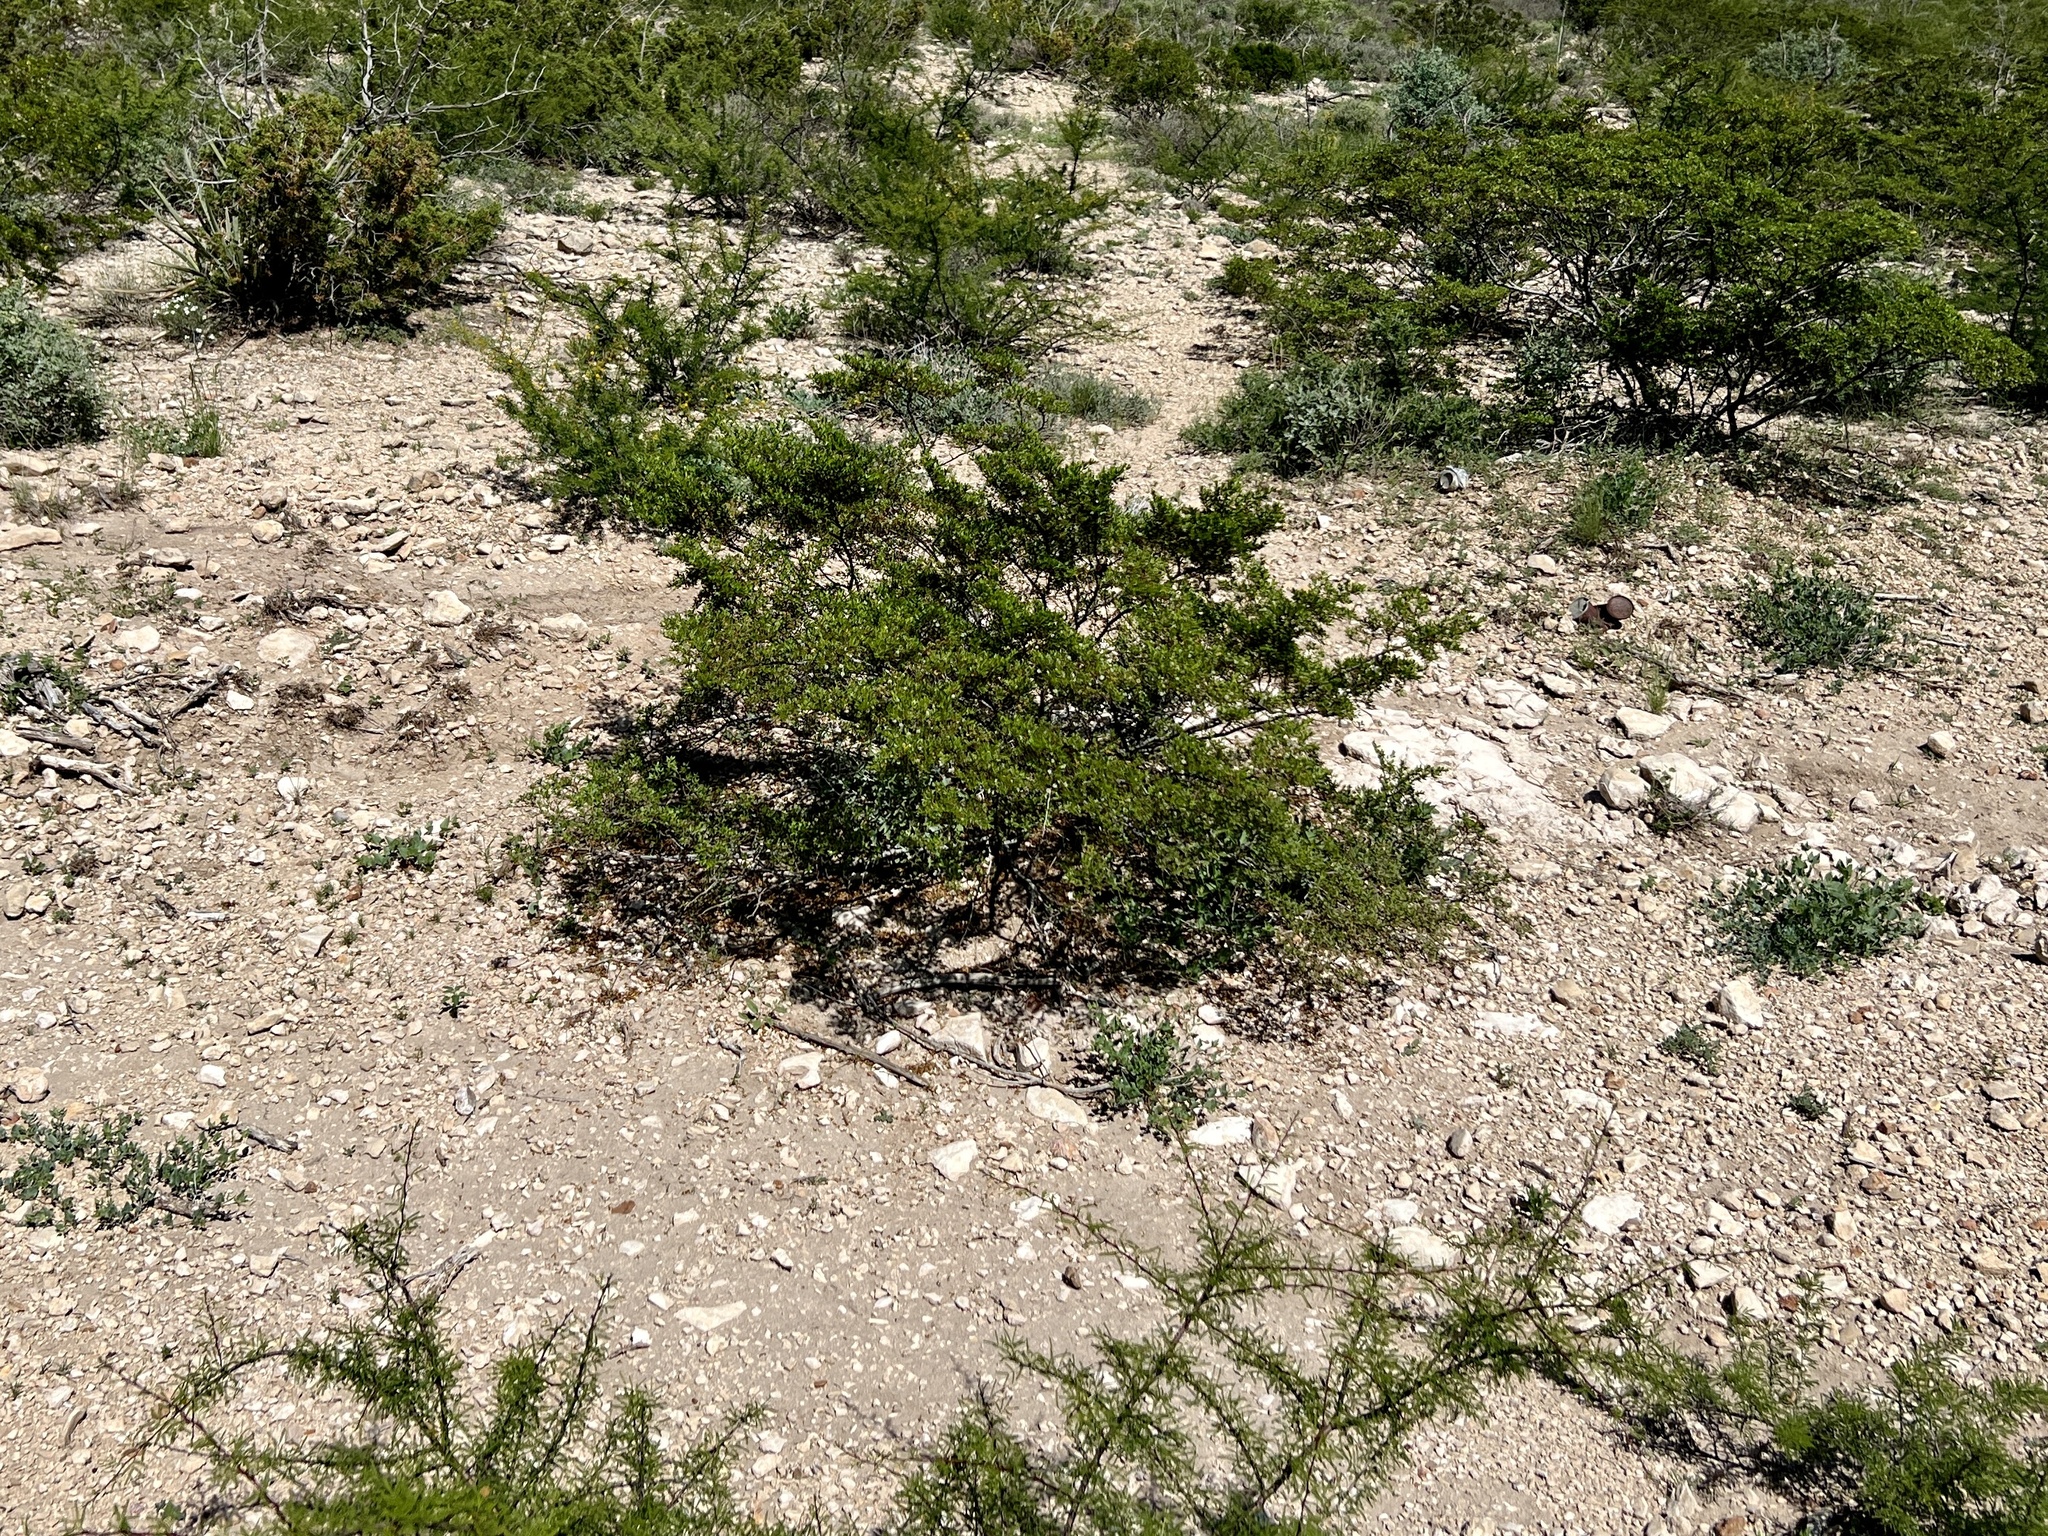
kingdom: Plantae
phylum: Tracheophyta
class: Magnoliopsida
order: Zygophyllales
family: Zygophyllaceae
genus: Larrea
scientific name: Larrea tridentata
